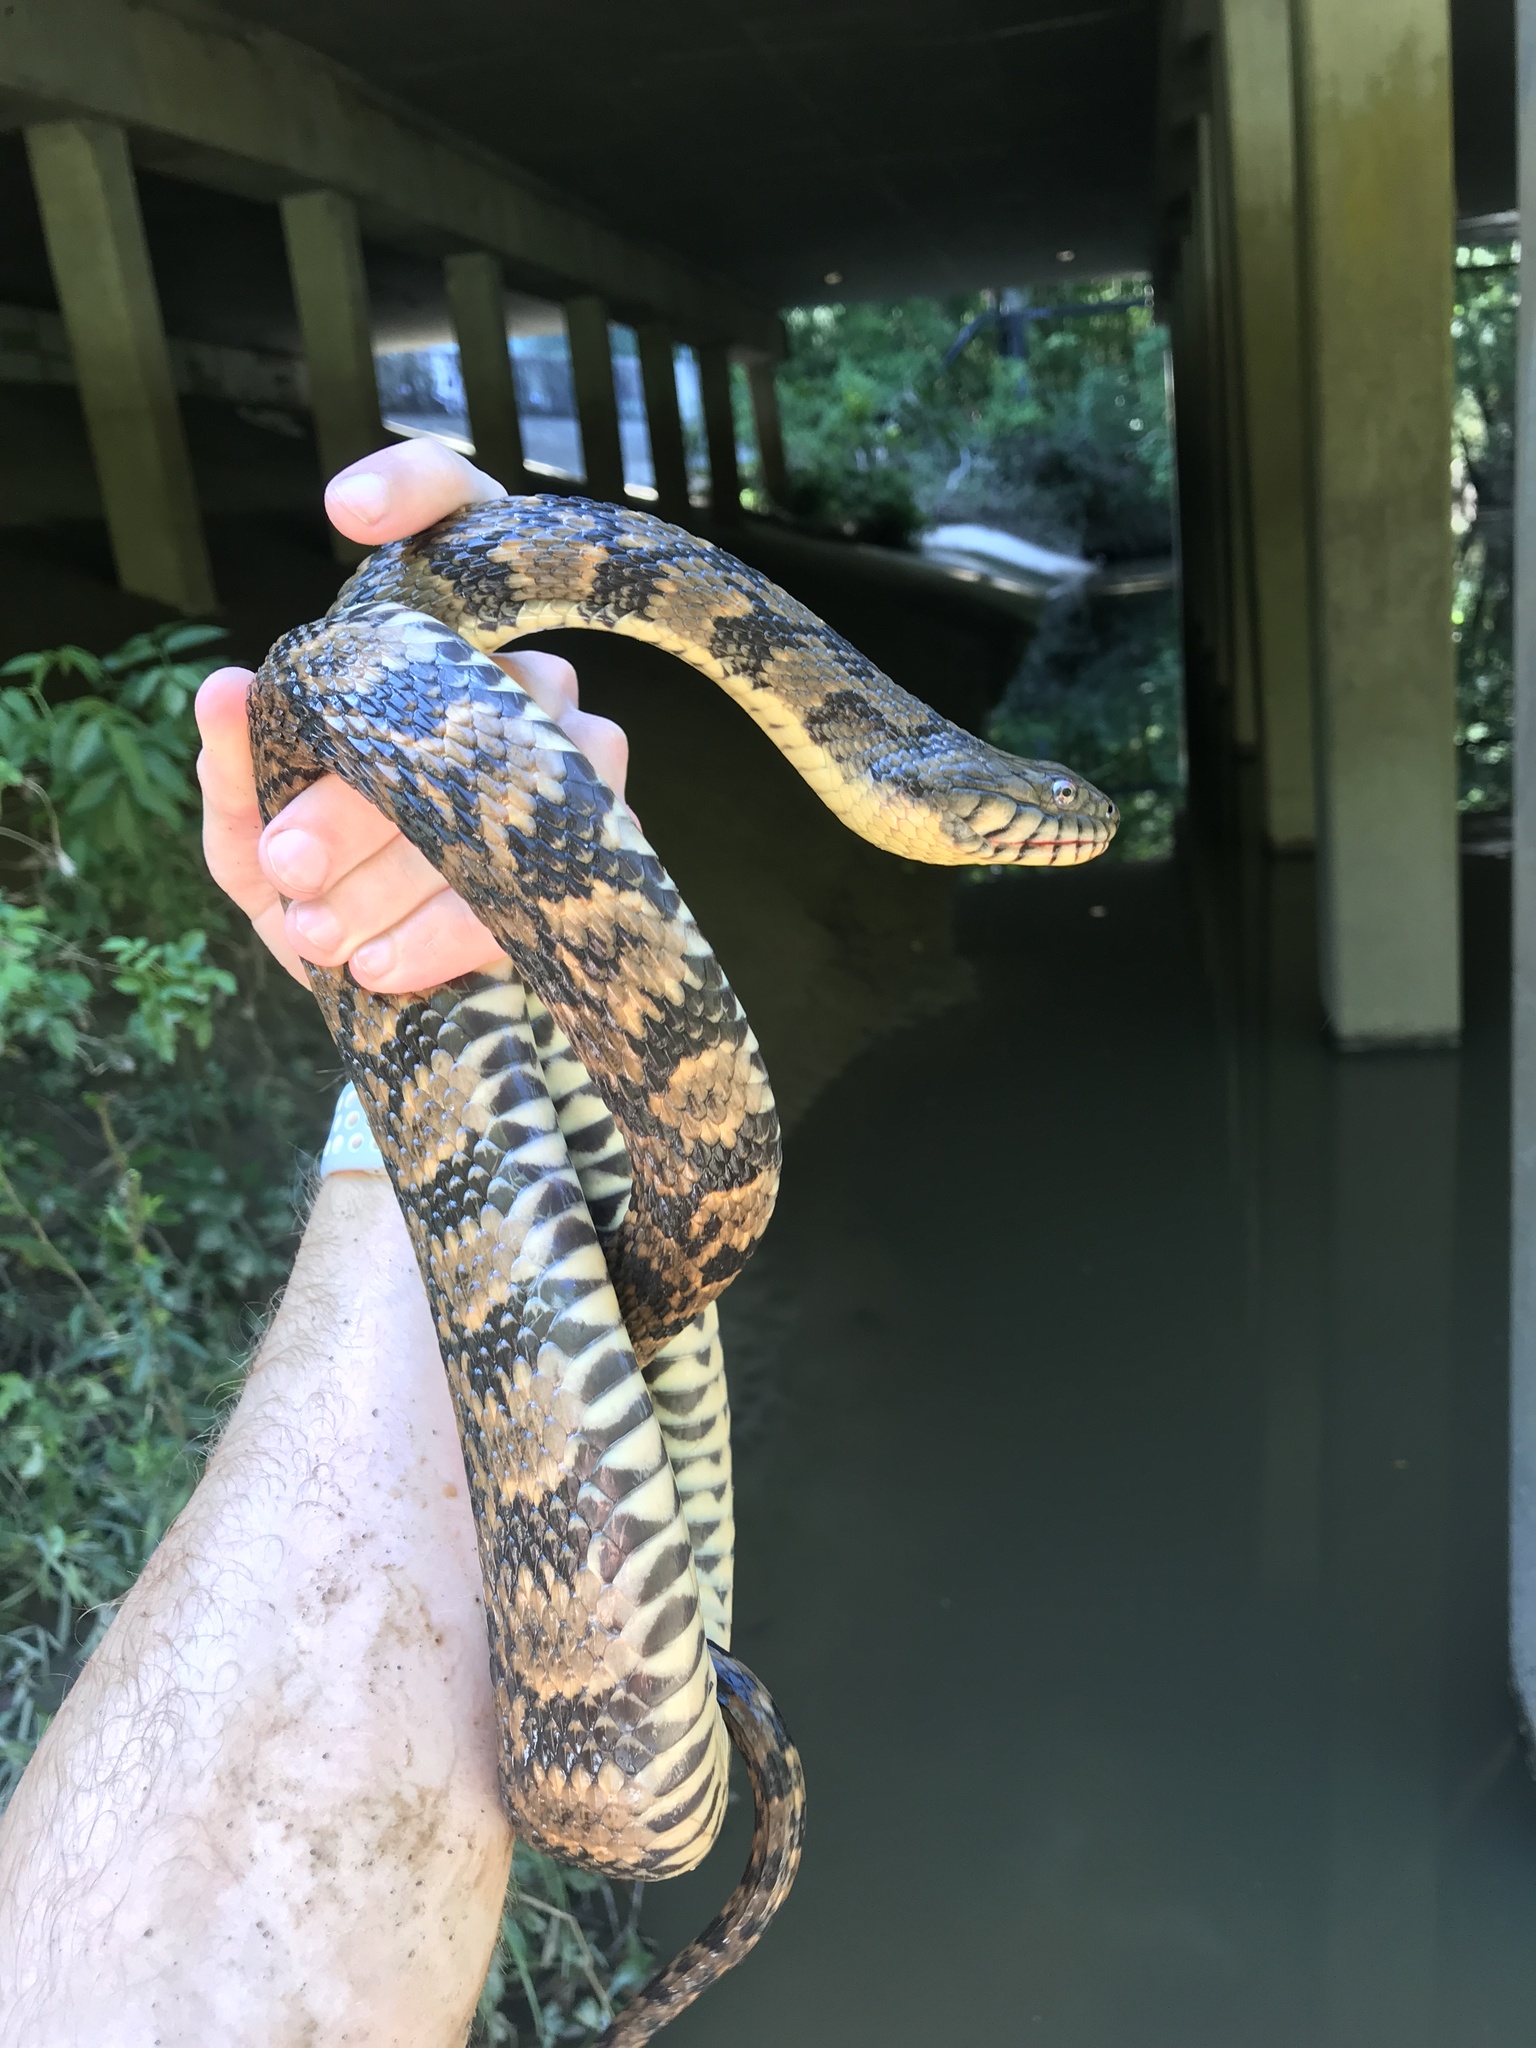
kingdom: Animalia
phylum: Chordata
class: Squamata
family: Colubridae
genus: Nerodia
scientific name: Nerodia rhombifer
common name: Diamondback water snake
